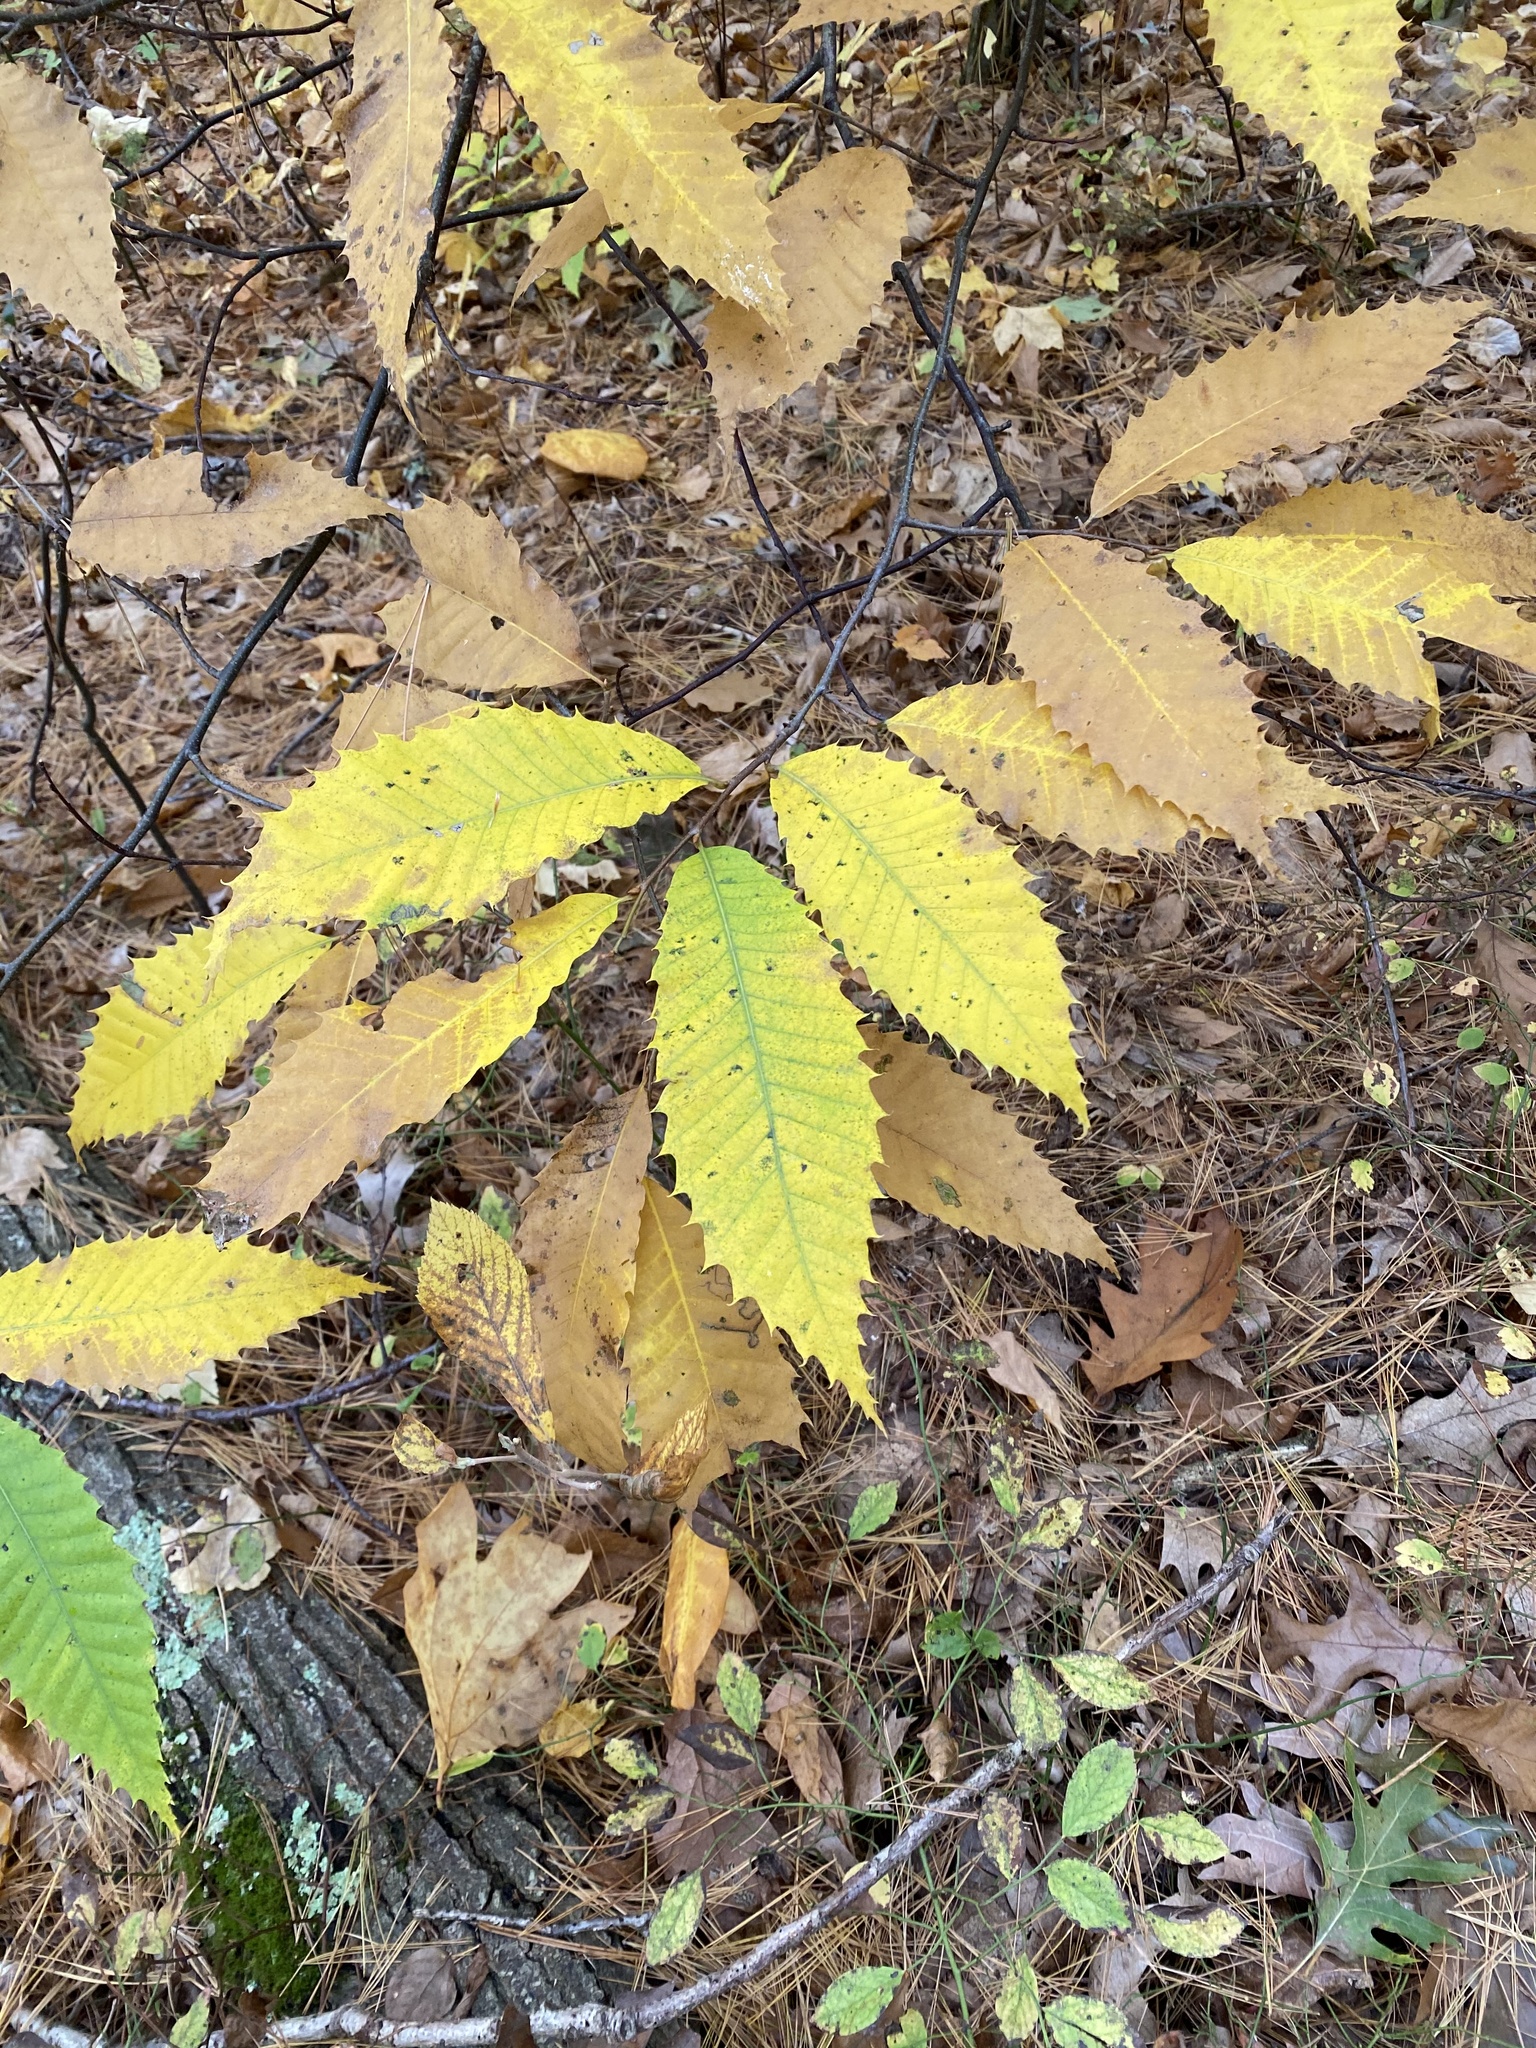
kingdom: Plantae
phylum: Tracheophyta
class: Magnoliopsida
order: Fagales
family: Fagaceae
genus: Castanea
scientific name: Castanea dentata
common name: American chestnut
